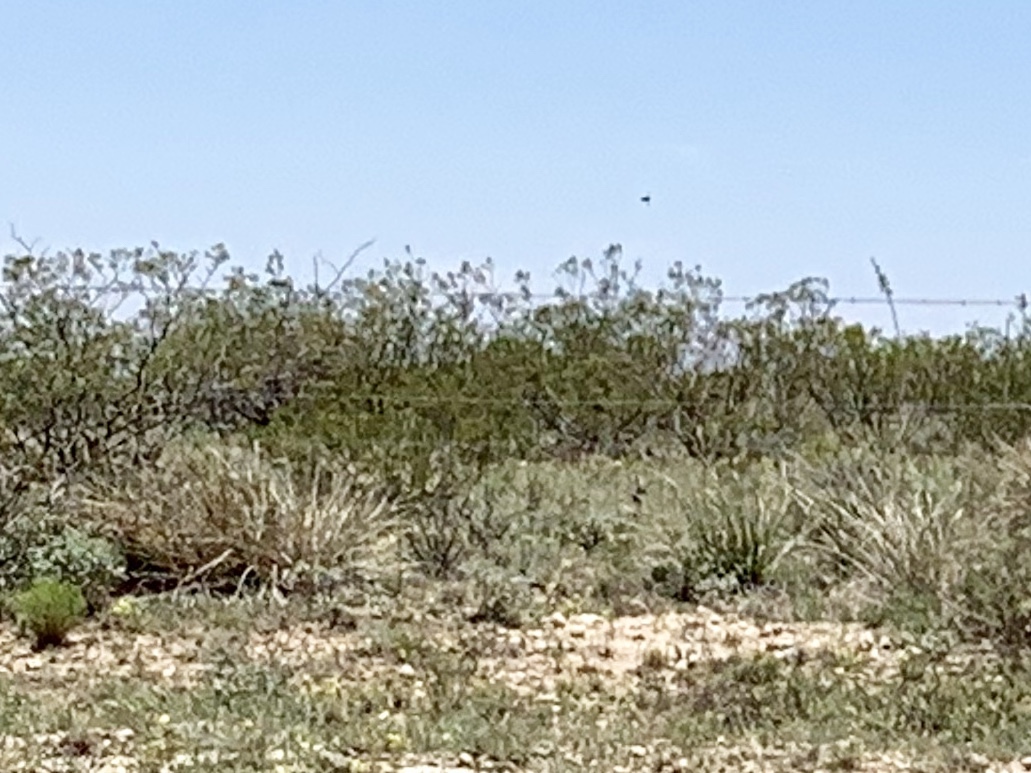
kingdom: Plantae
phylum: Tracheophyta
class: Magnoliopsida
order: Zygophyllales
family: Zygophyllaceae
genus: Larrea
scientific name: Larrea tridentata
